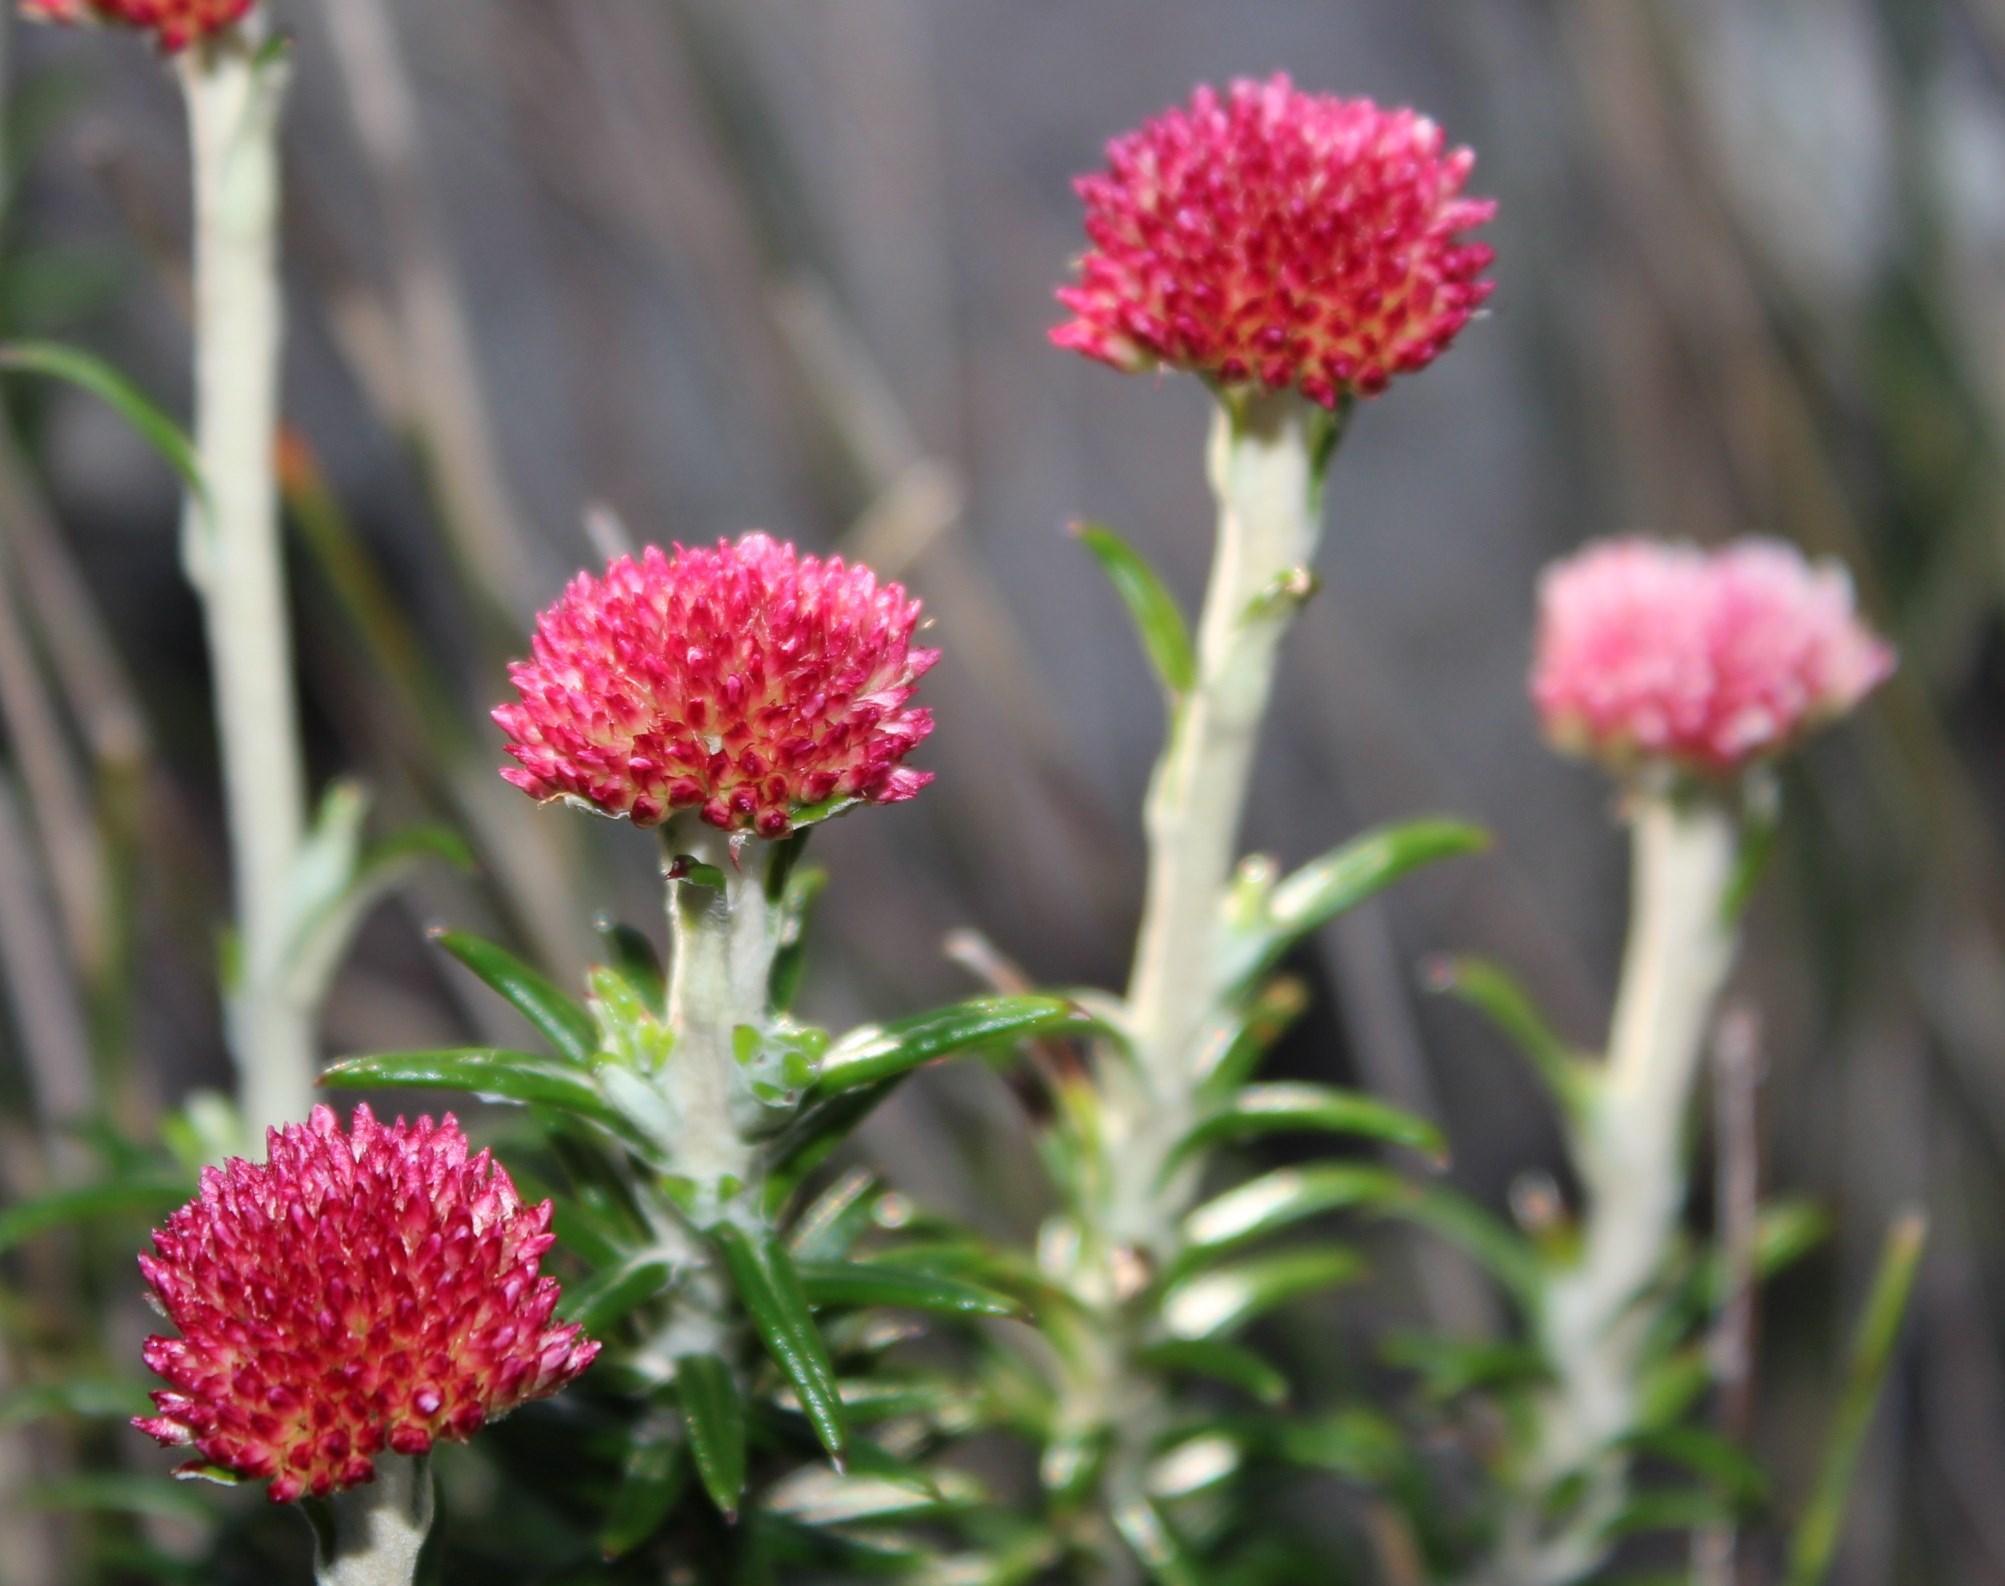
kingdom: Plantae
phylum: Tracheophyta
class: Magnoliopsida
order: Asterales
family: Asteraceae
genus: Anaxeton
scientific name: Anaxeton arborescens
